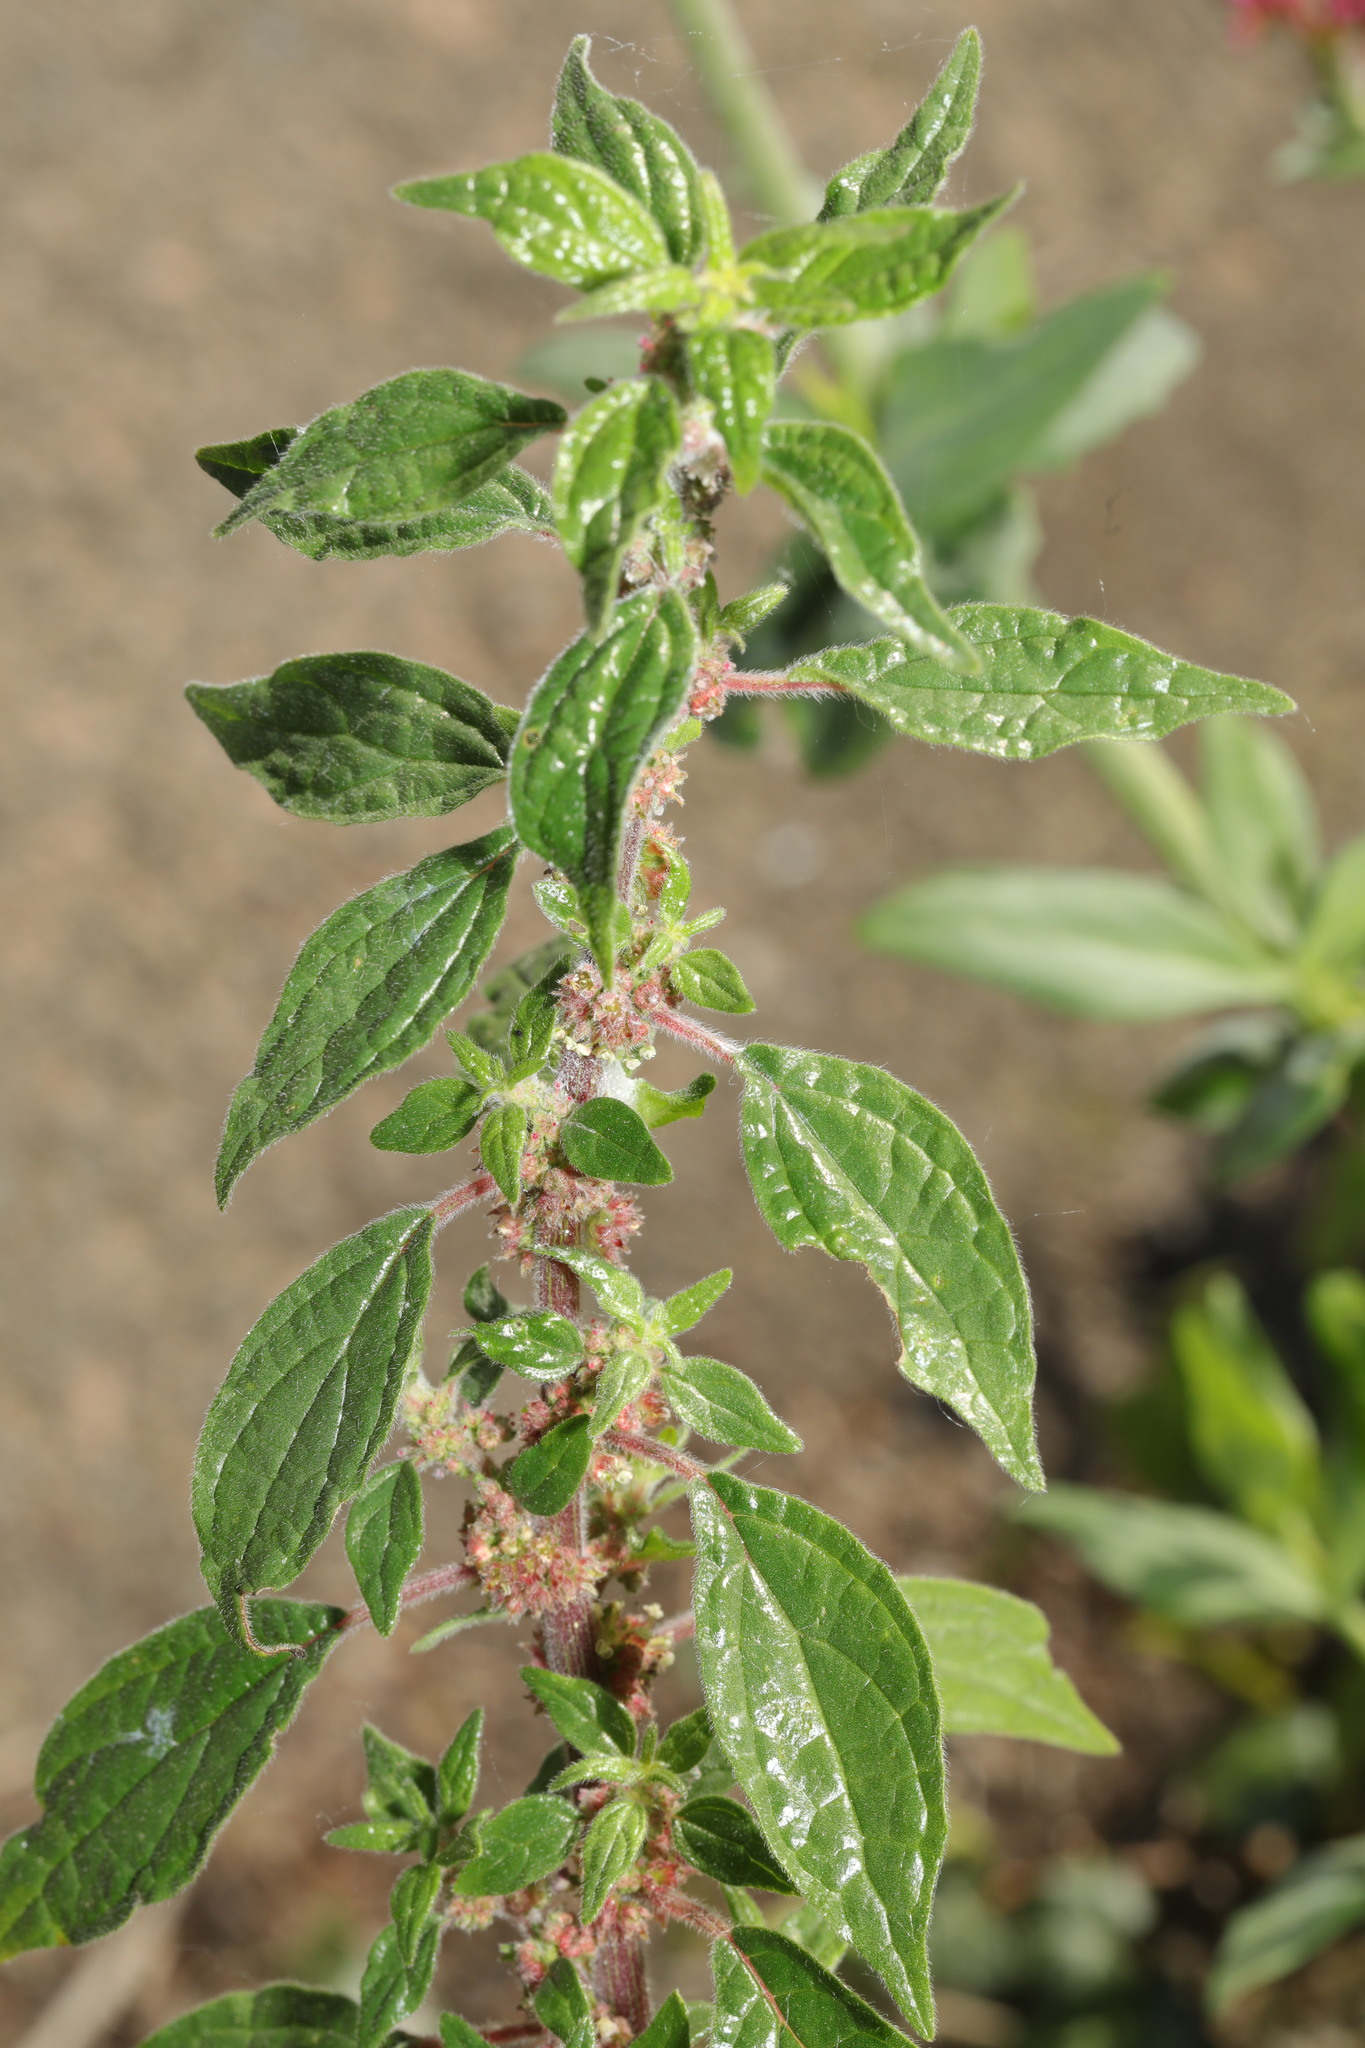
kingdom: Plantae
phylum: Tracheophyta
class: Magnoliopsida
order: Rosales
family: Urticaceae
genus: Parietaria
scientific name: Parietaria judaica
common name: Pellitory-of-the-wall
